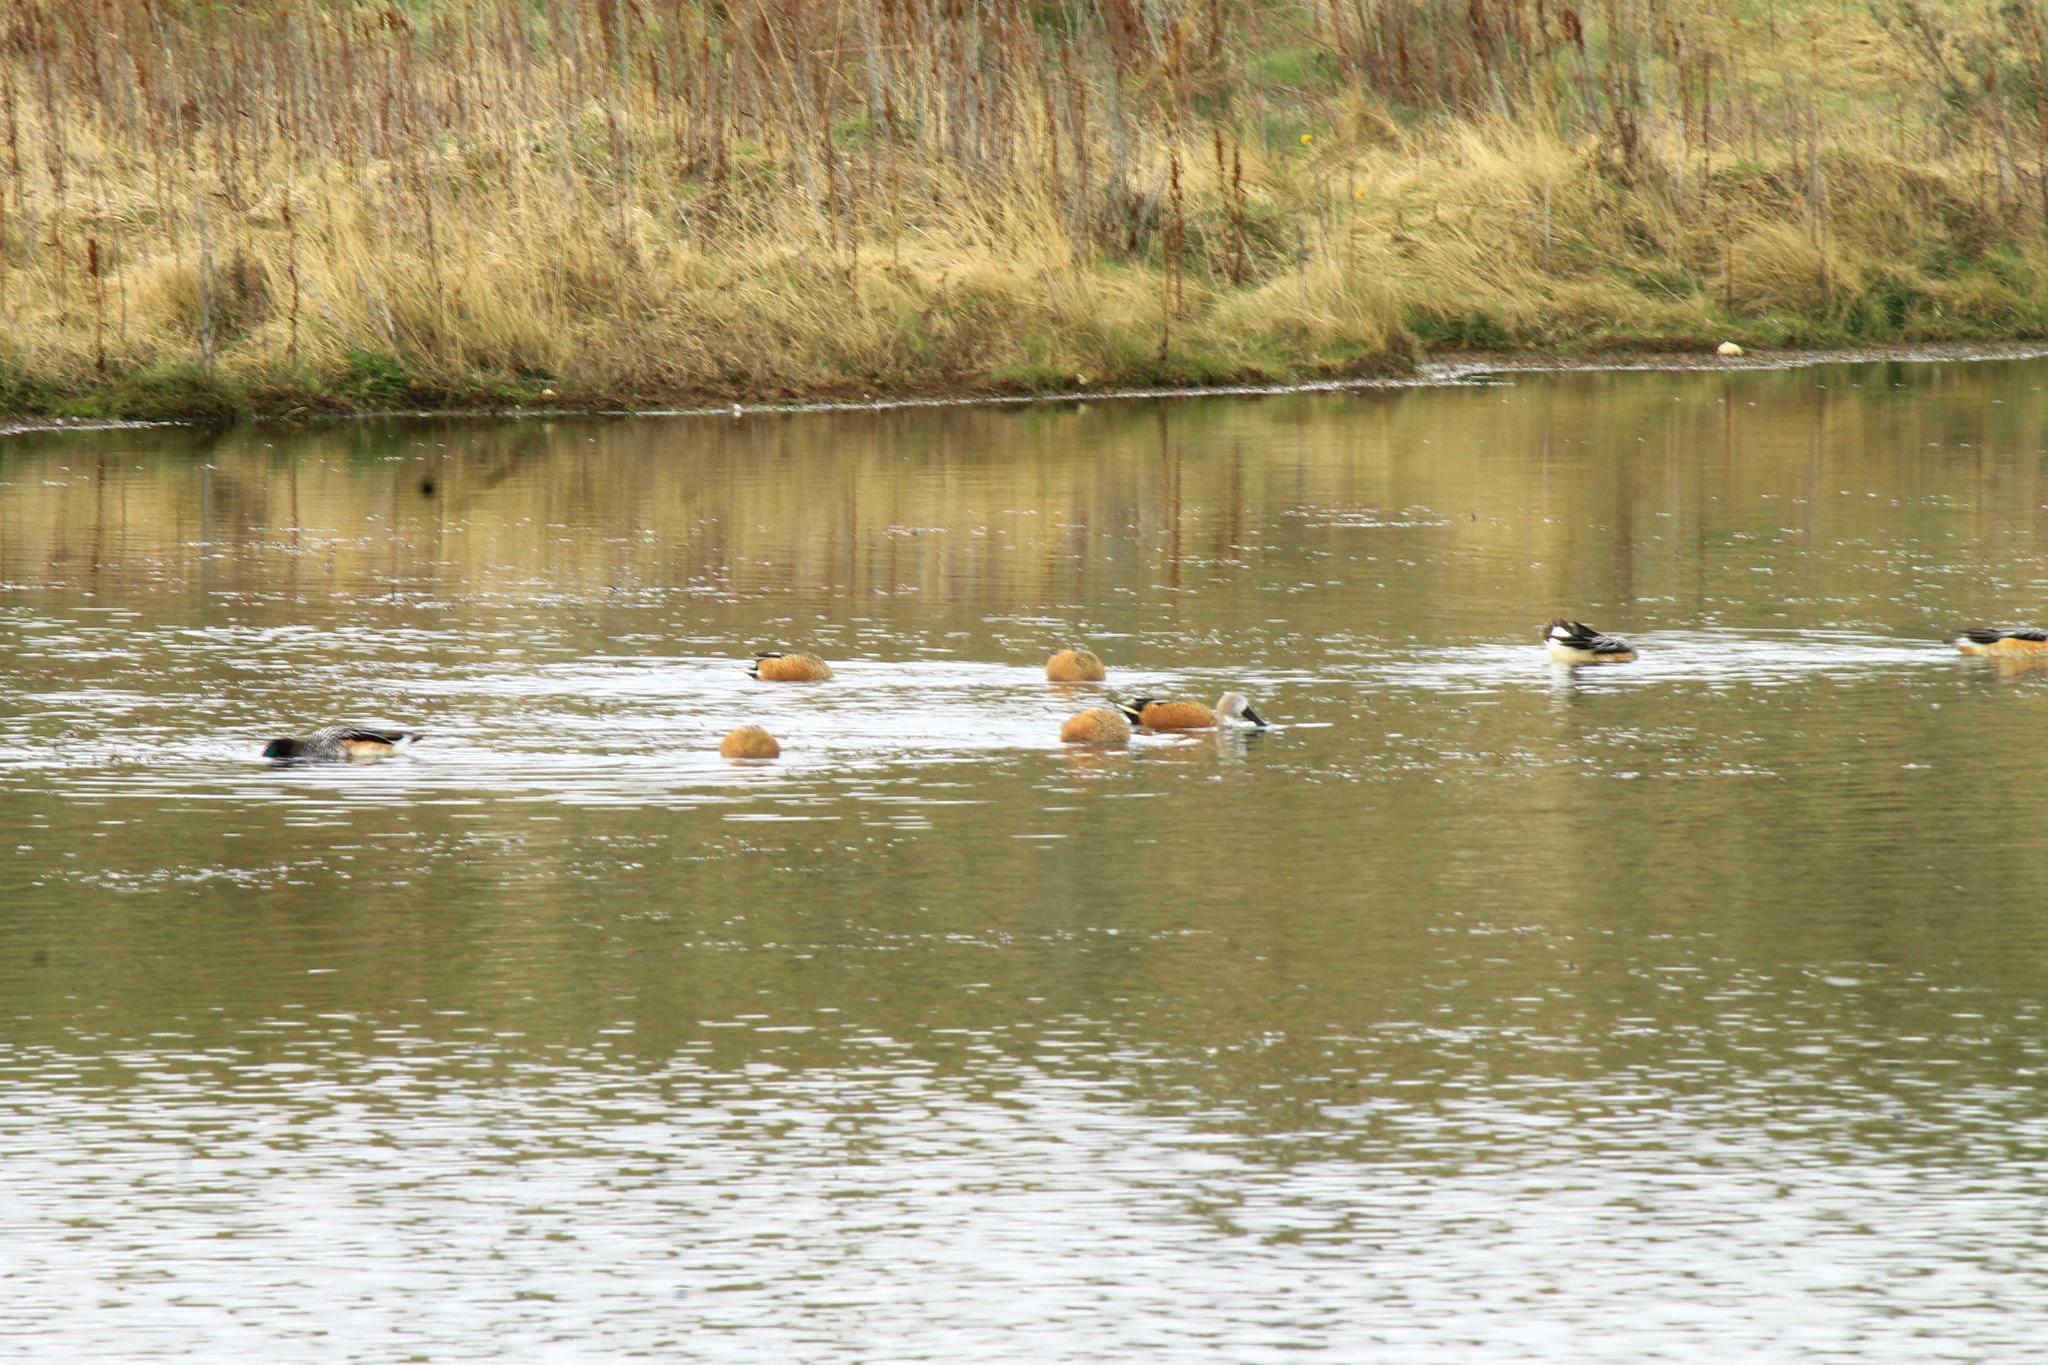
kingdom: Animalia
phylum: Chordata
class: Aves
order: Anseriformes
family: Anatidae
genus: Spatula
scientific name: Spatula platalea
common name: Red shoveler
